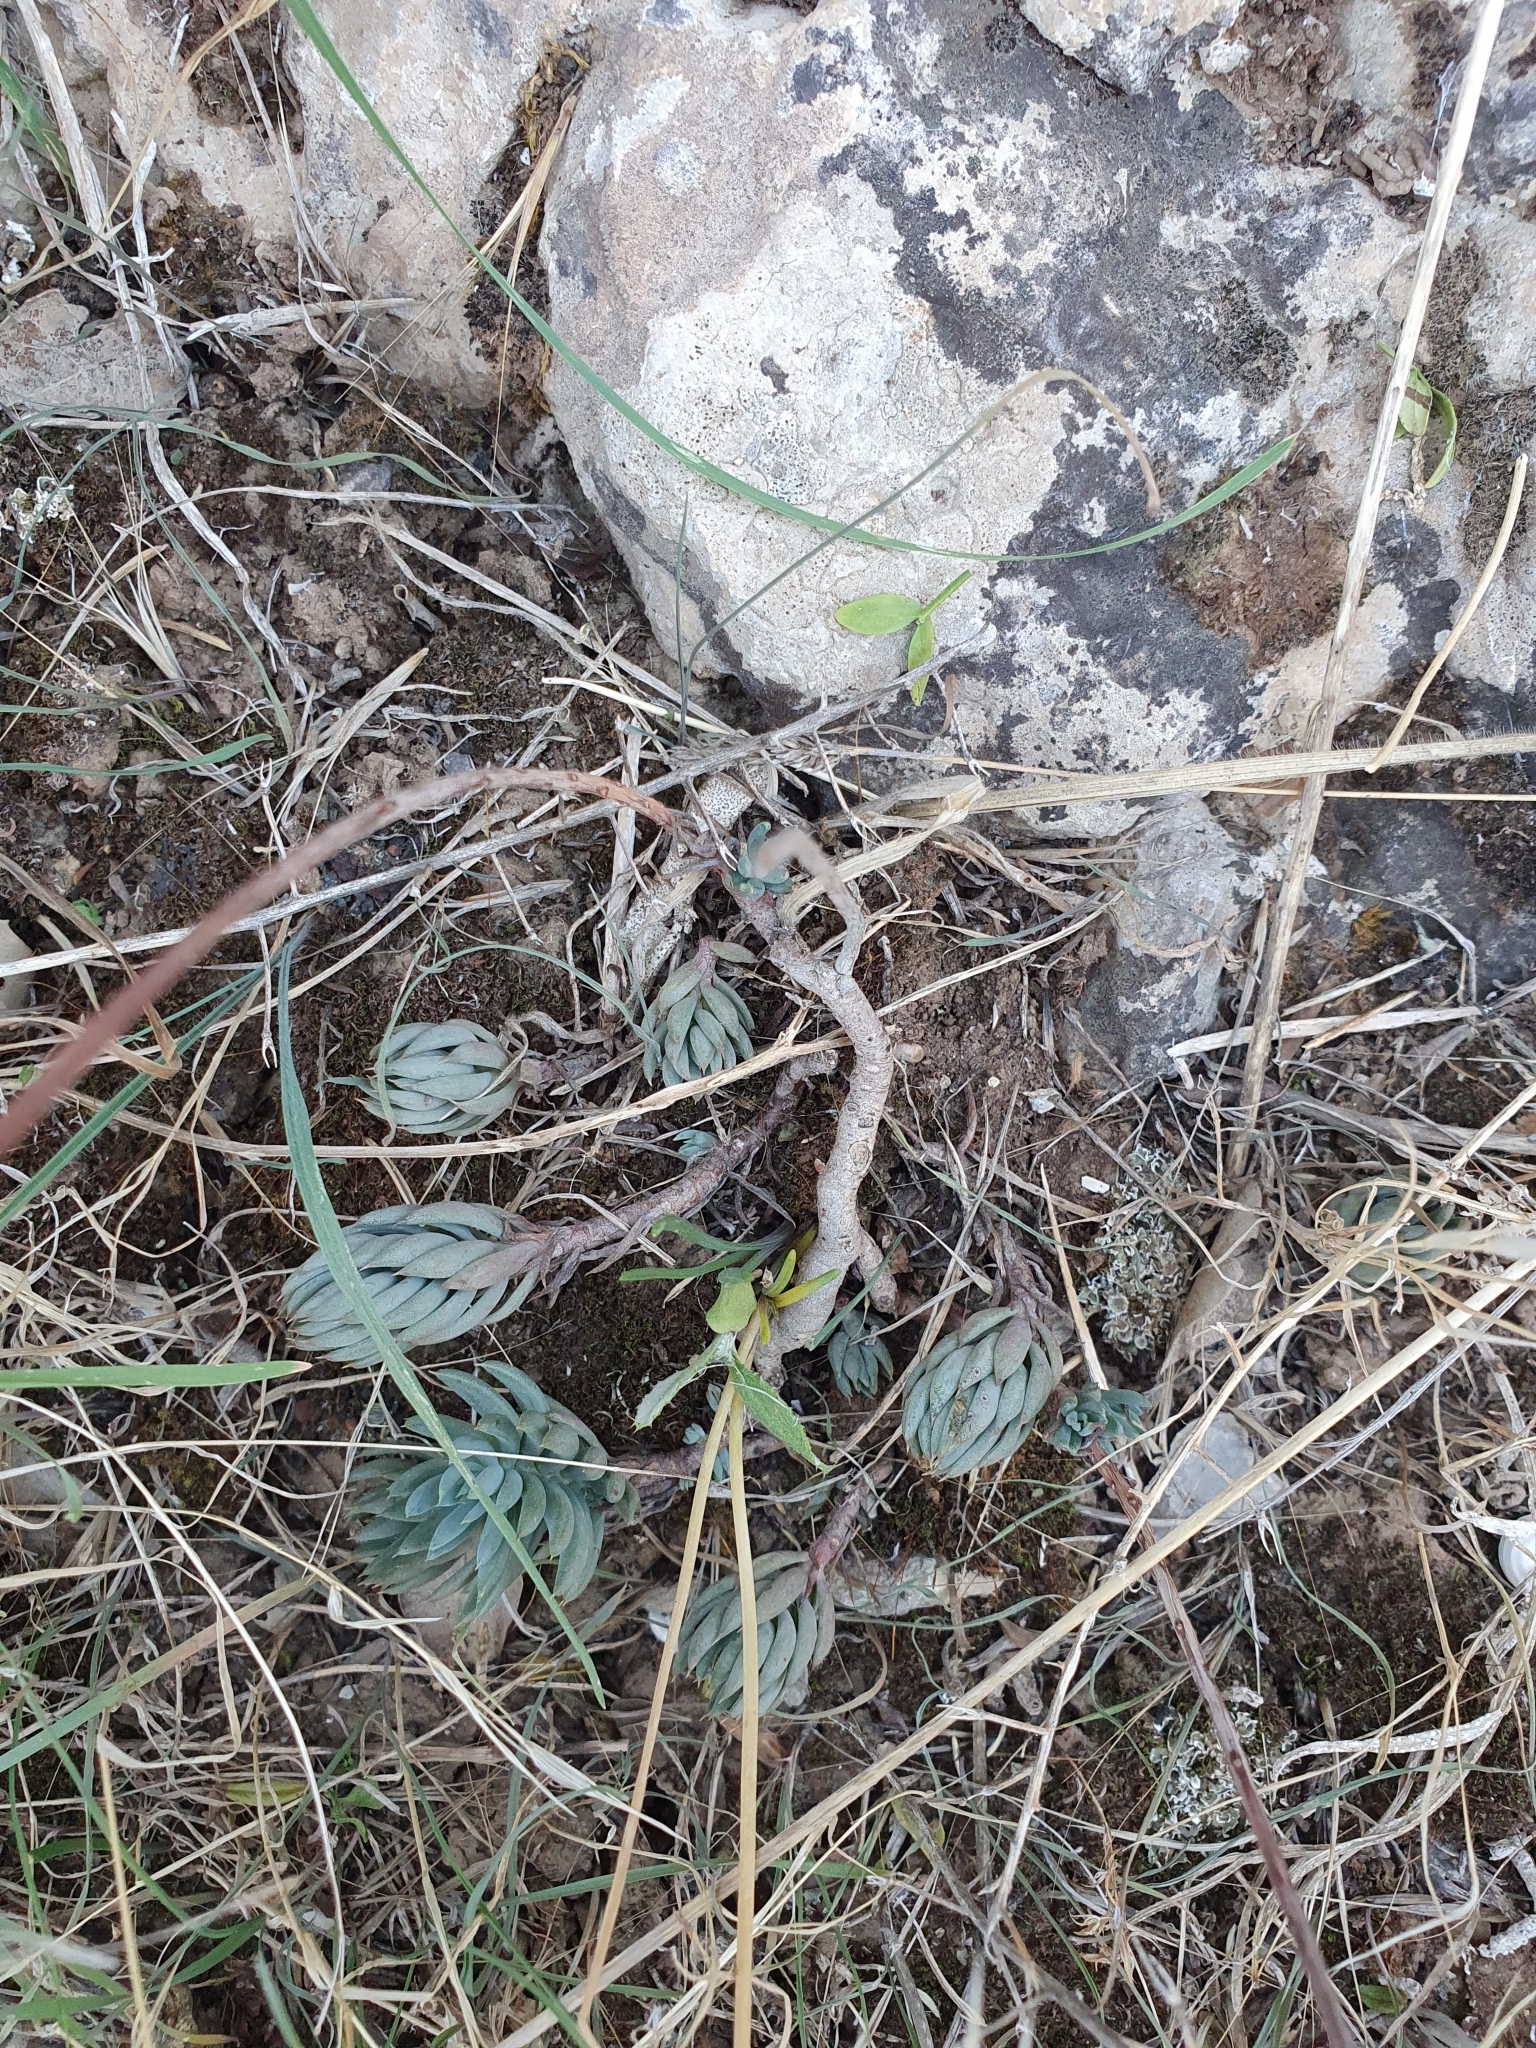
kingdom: Plantae
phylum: Tracheophyta
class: Magnoliopsida
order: Saxifragales
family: Crassulaceae
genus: Petrosedum
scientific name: Petrosedum sediforme
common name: Pale stonecrop
